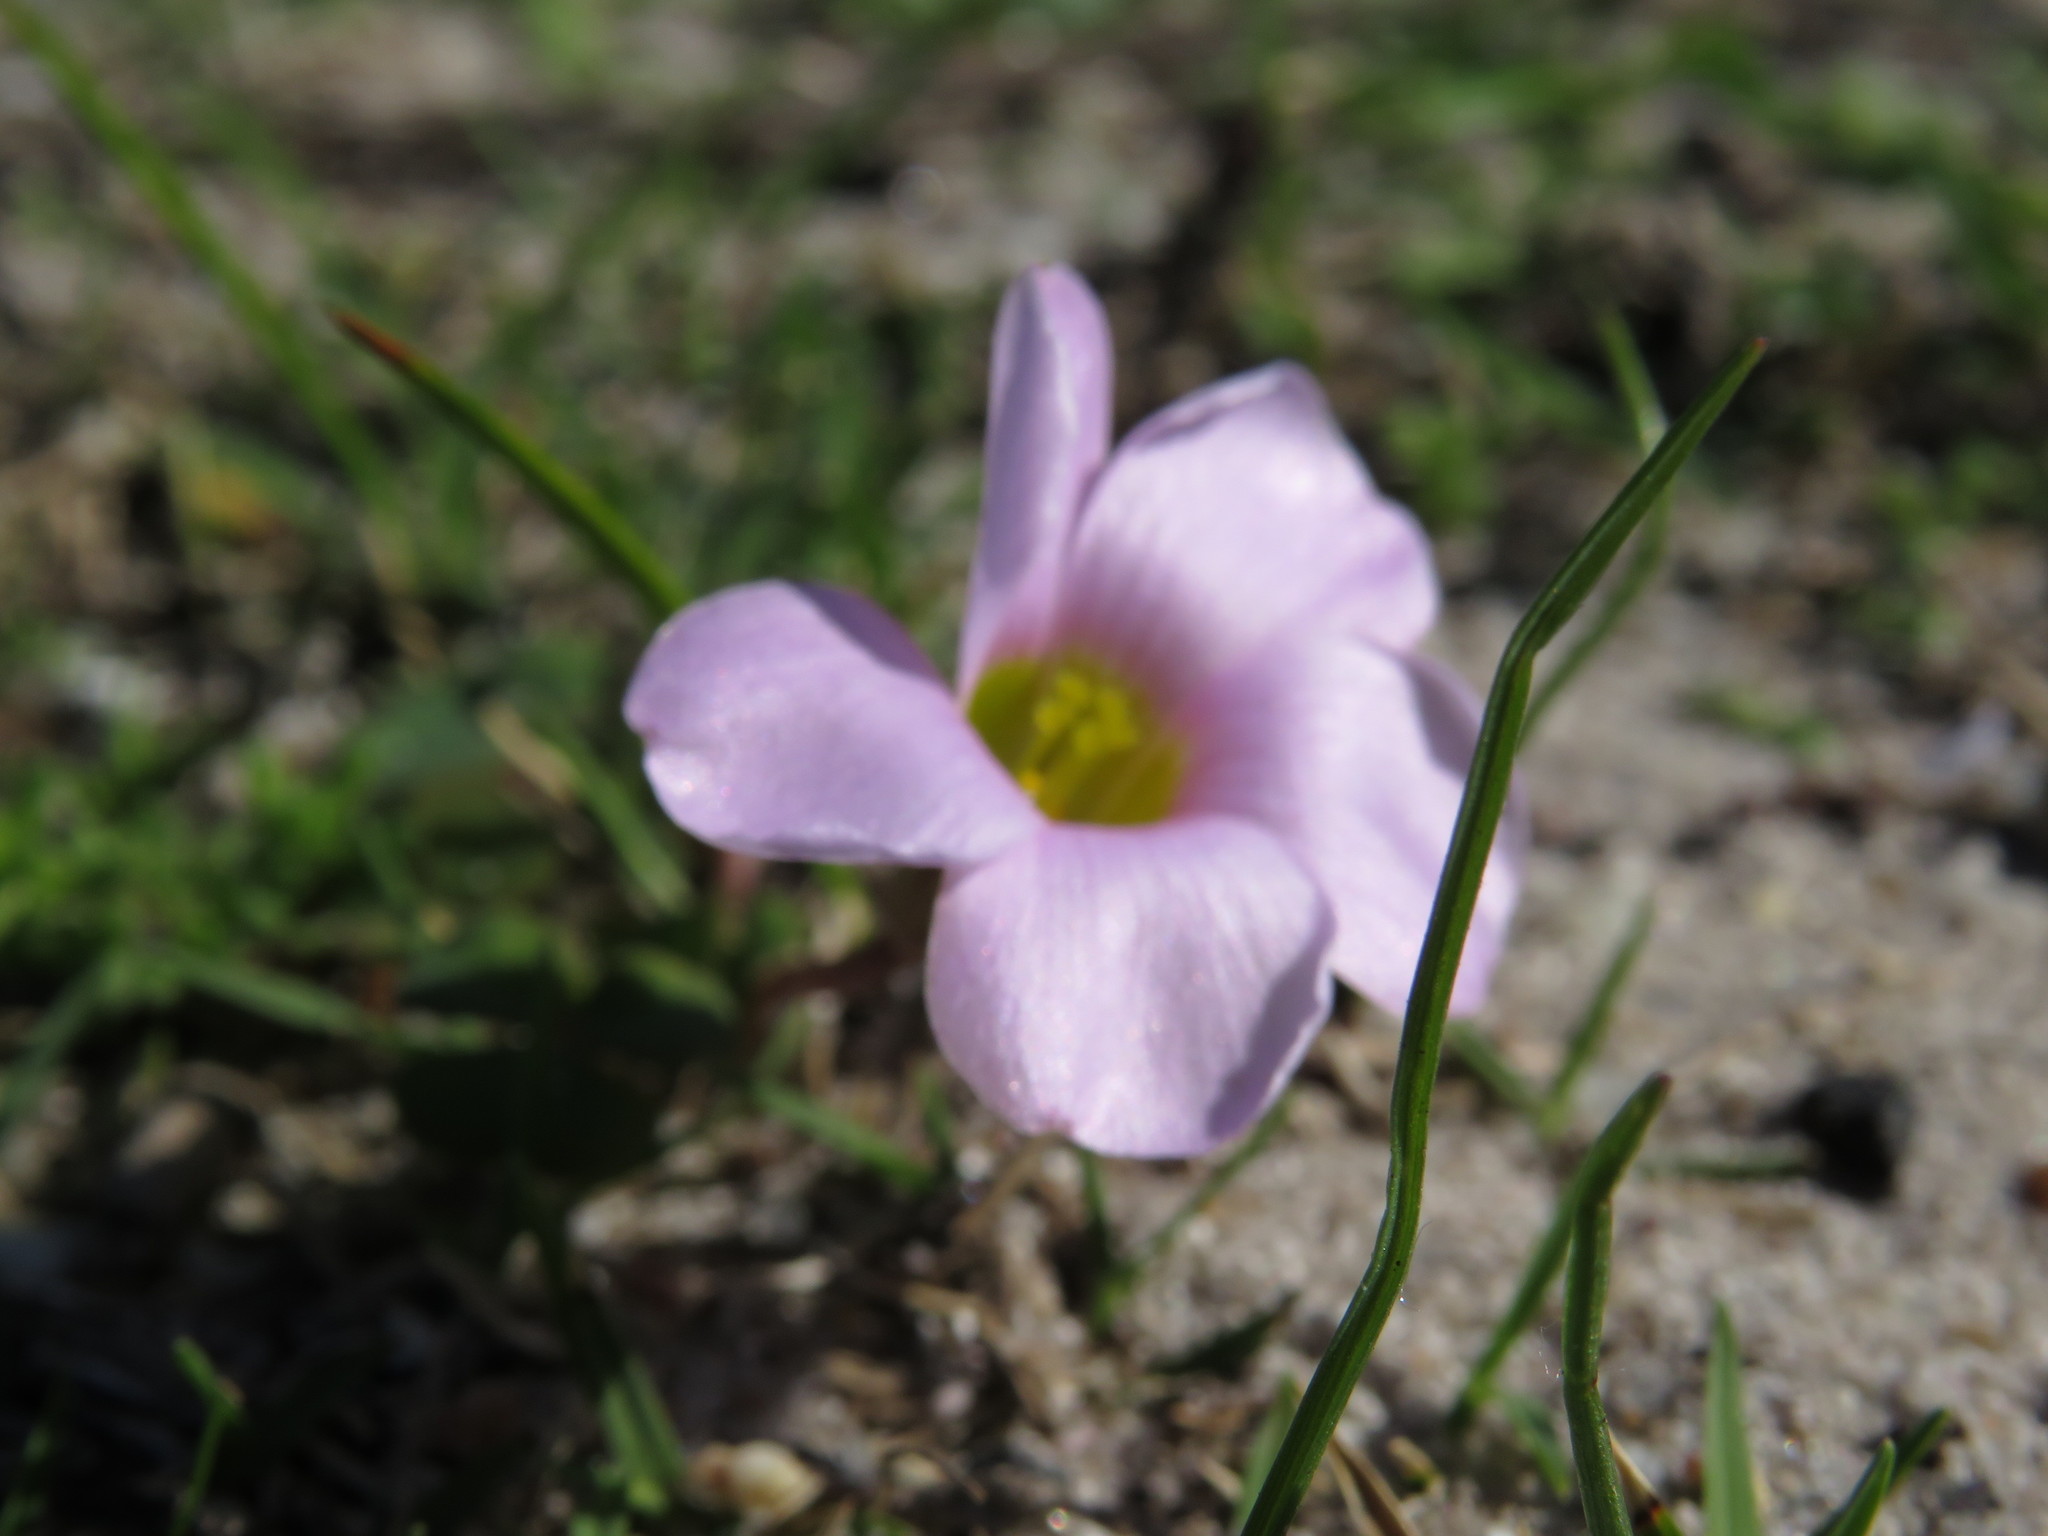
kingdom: Plantae
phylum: Tracheophyta
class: Magnoliopsida
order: Oxalidales
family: Oxalidaceae
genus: Oxalis
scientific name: Oxalis depressa
